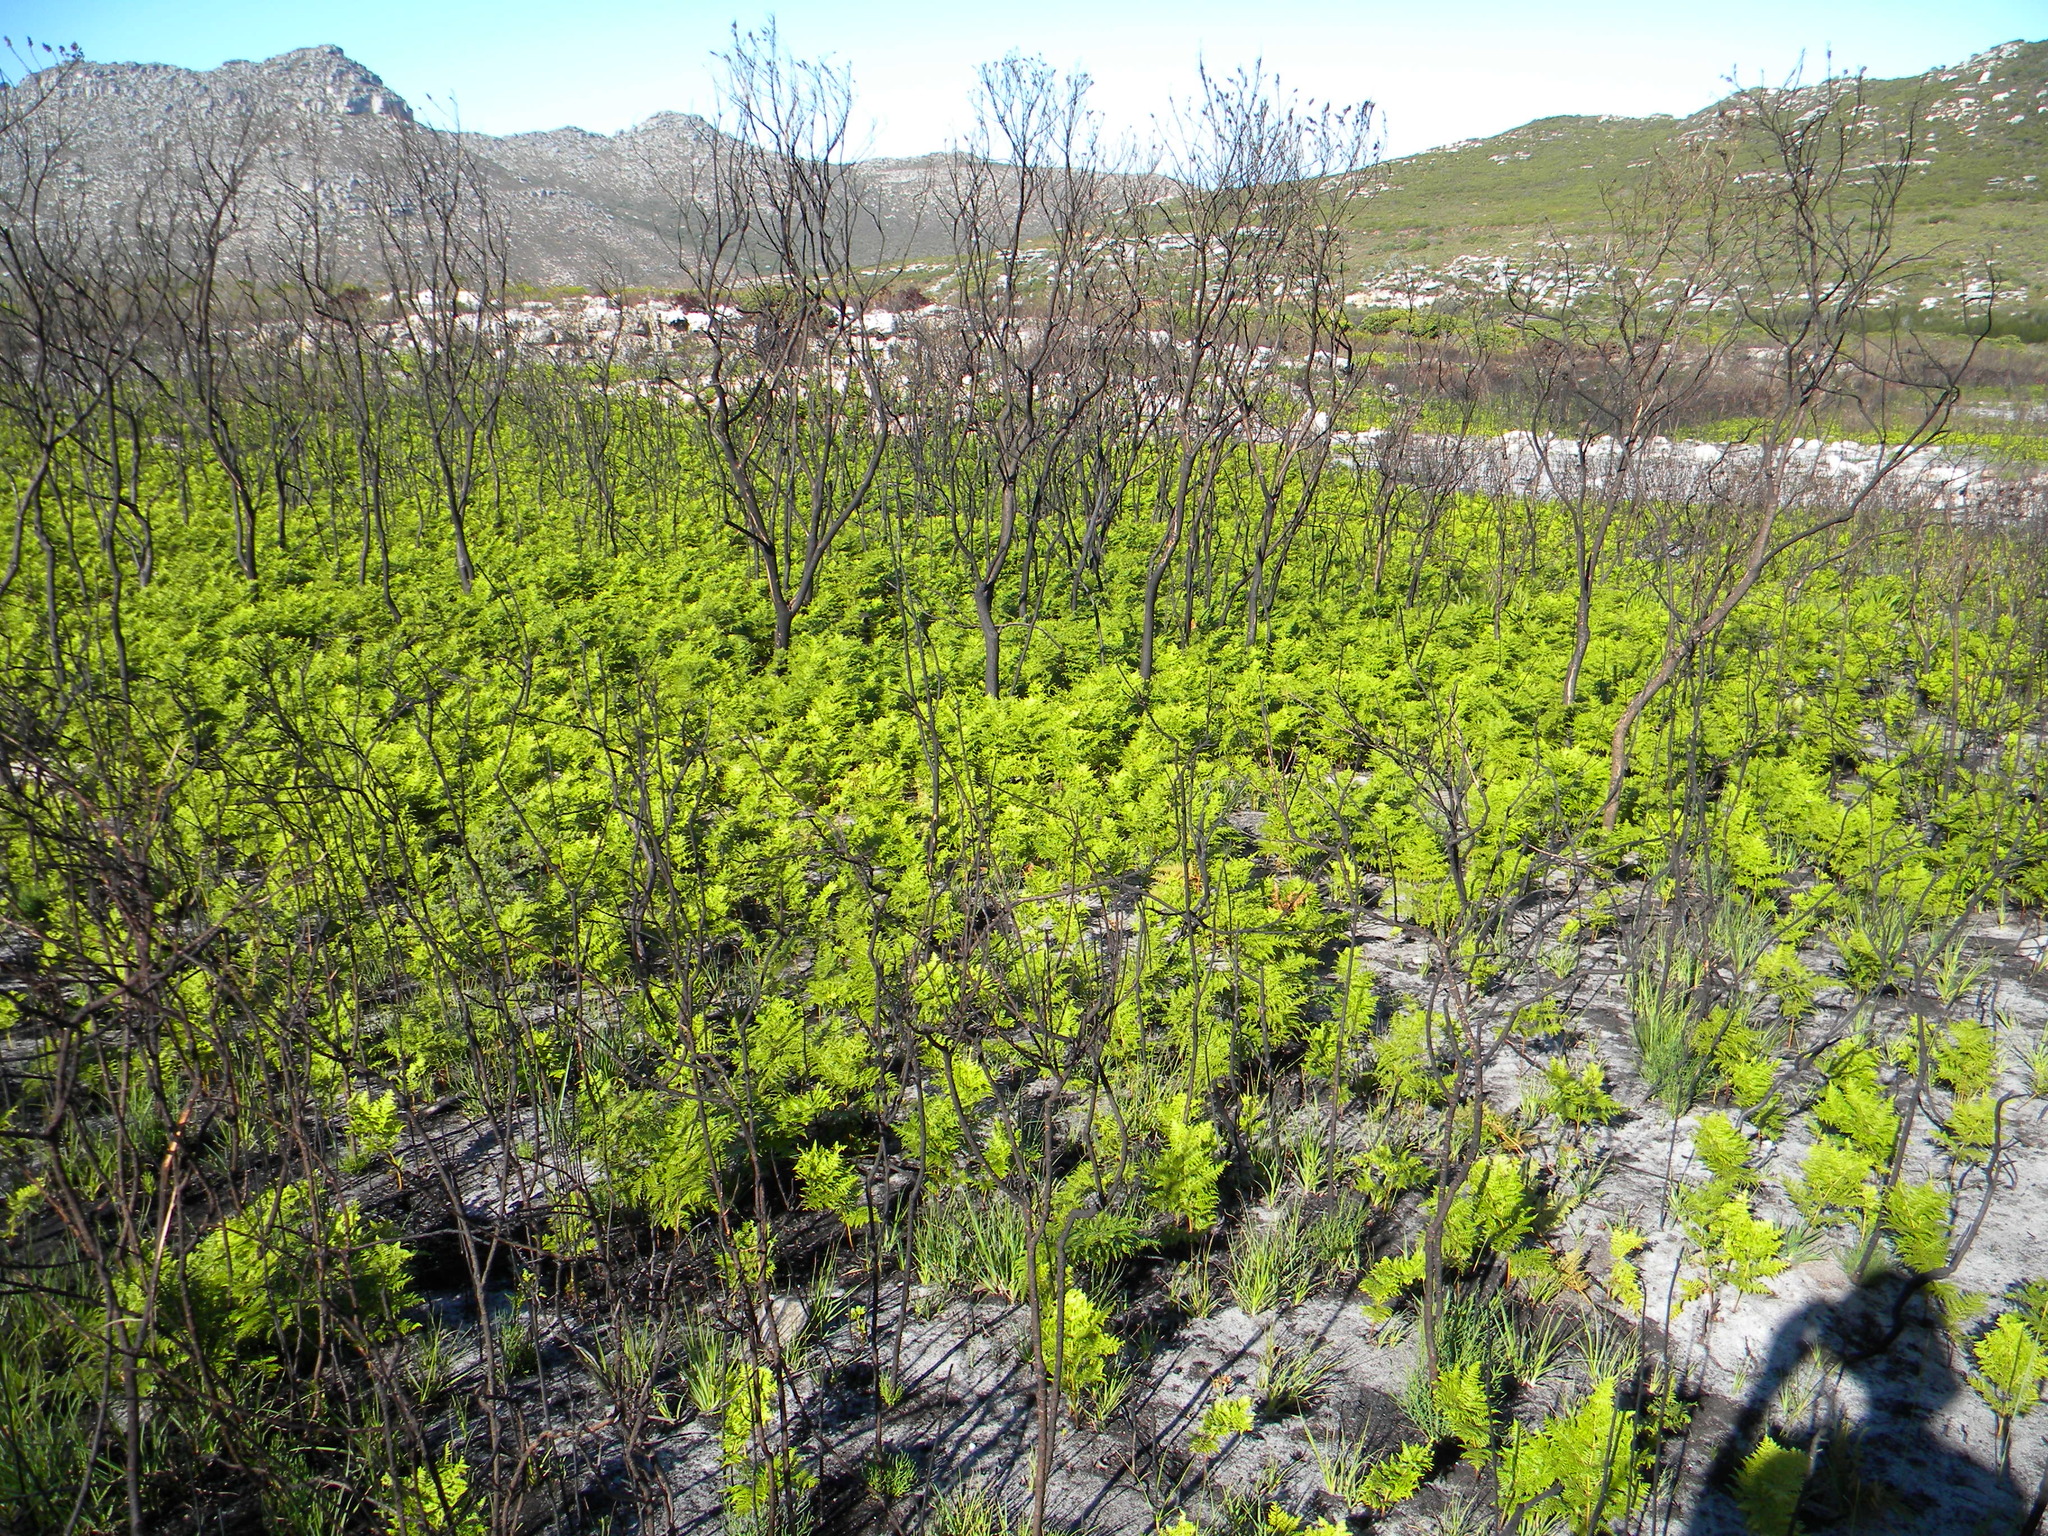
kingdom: Plantae
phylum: Tracheophyta
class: Polypodiopsida
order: Polypodiales
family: Dennstaedtiaceae
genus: Pteridium
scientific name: Pteridium aquilinum
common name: Bracken
